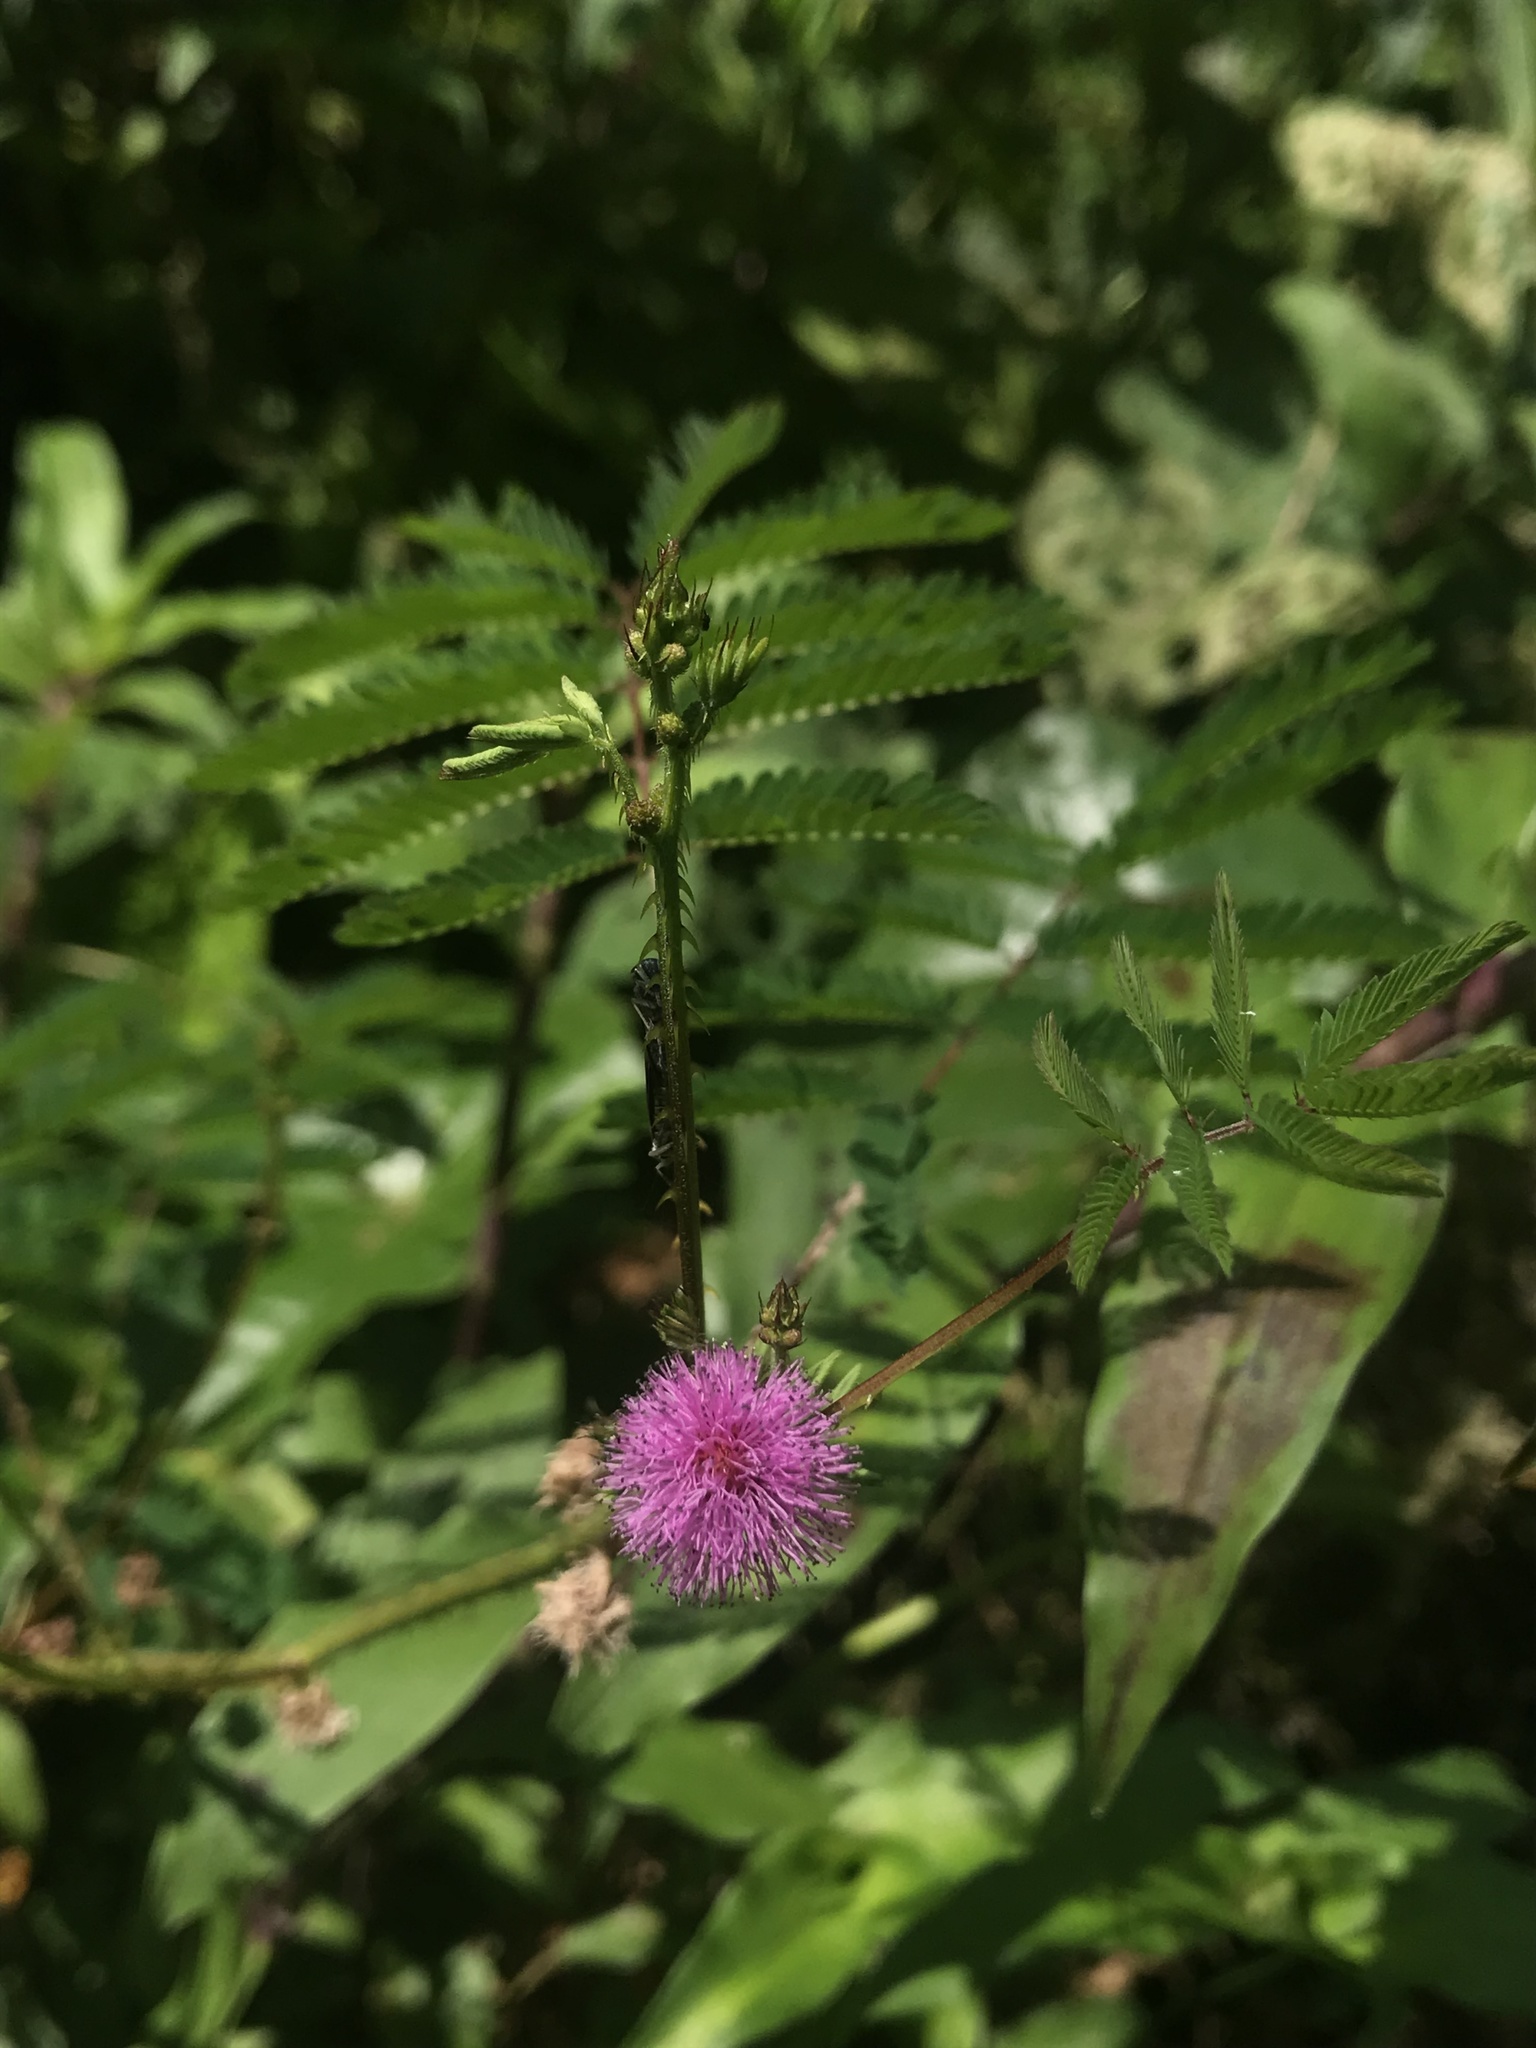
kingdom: Plantae
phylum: Tracheophyta
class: Magnoliopsida
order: Fabales
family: Fabaceae
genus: Mimosa
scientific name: Mimosa pudica
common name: Sensitive plant
